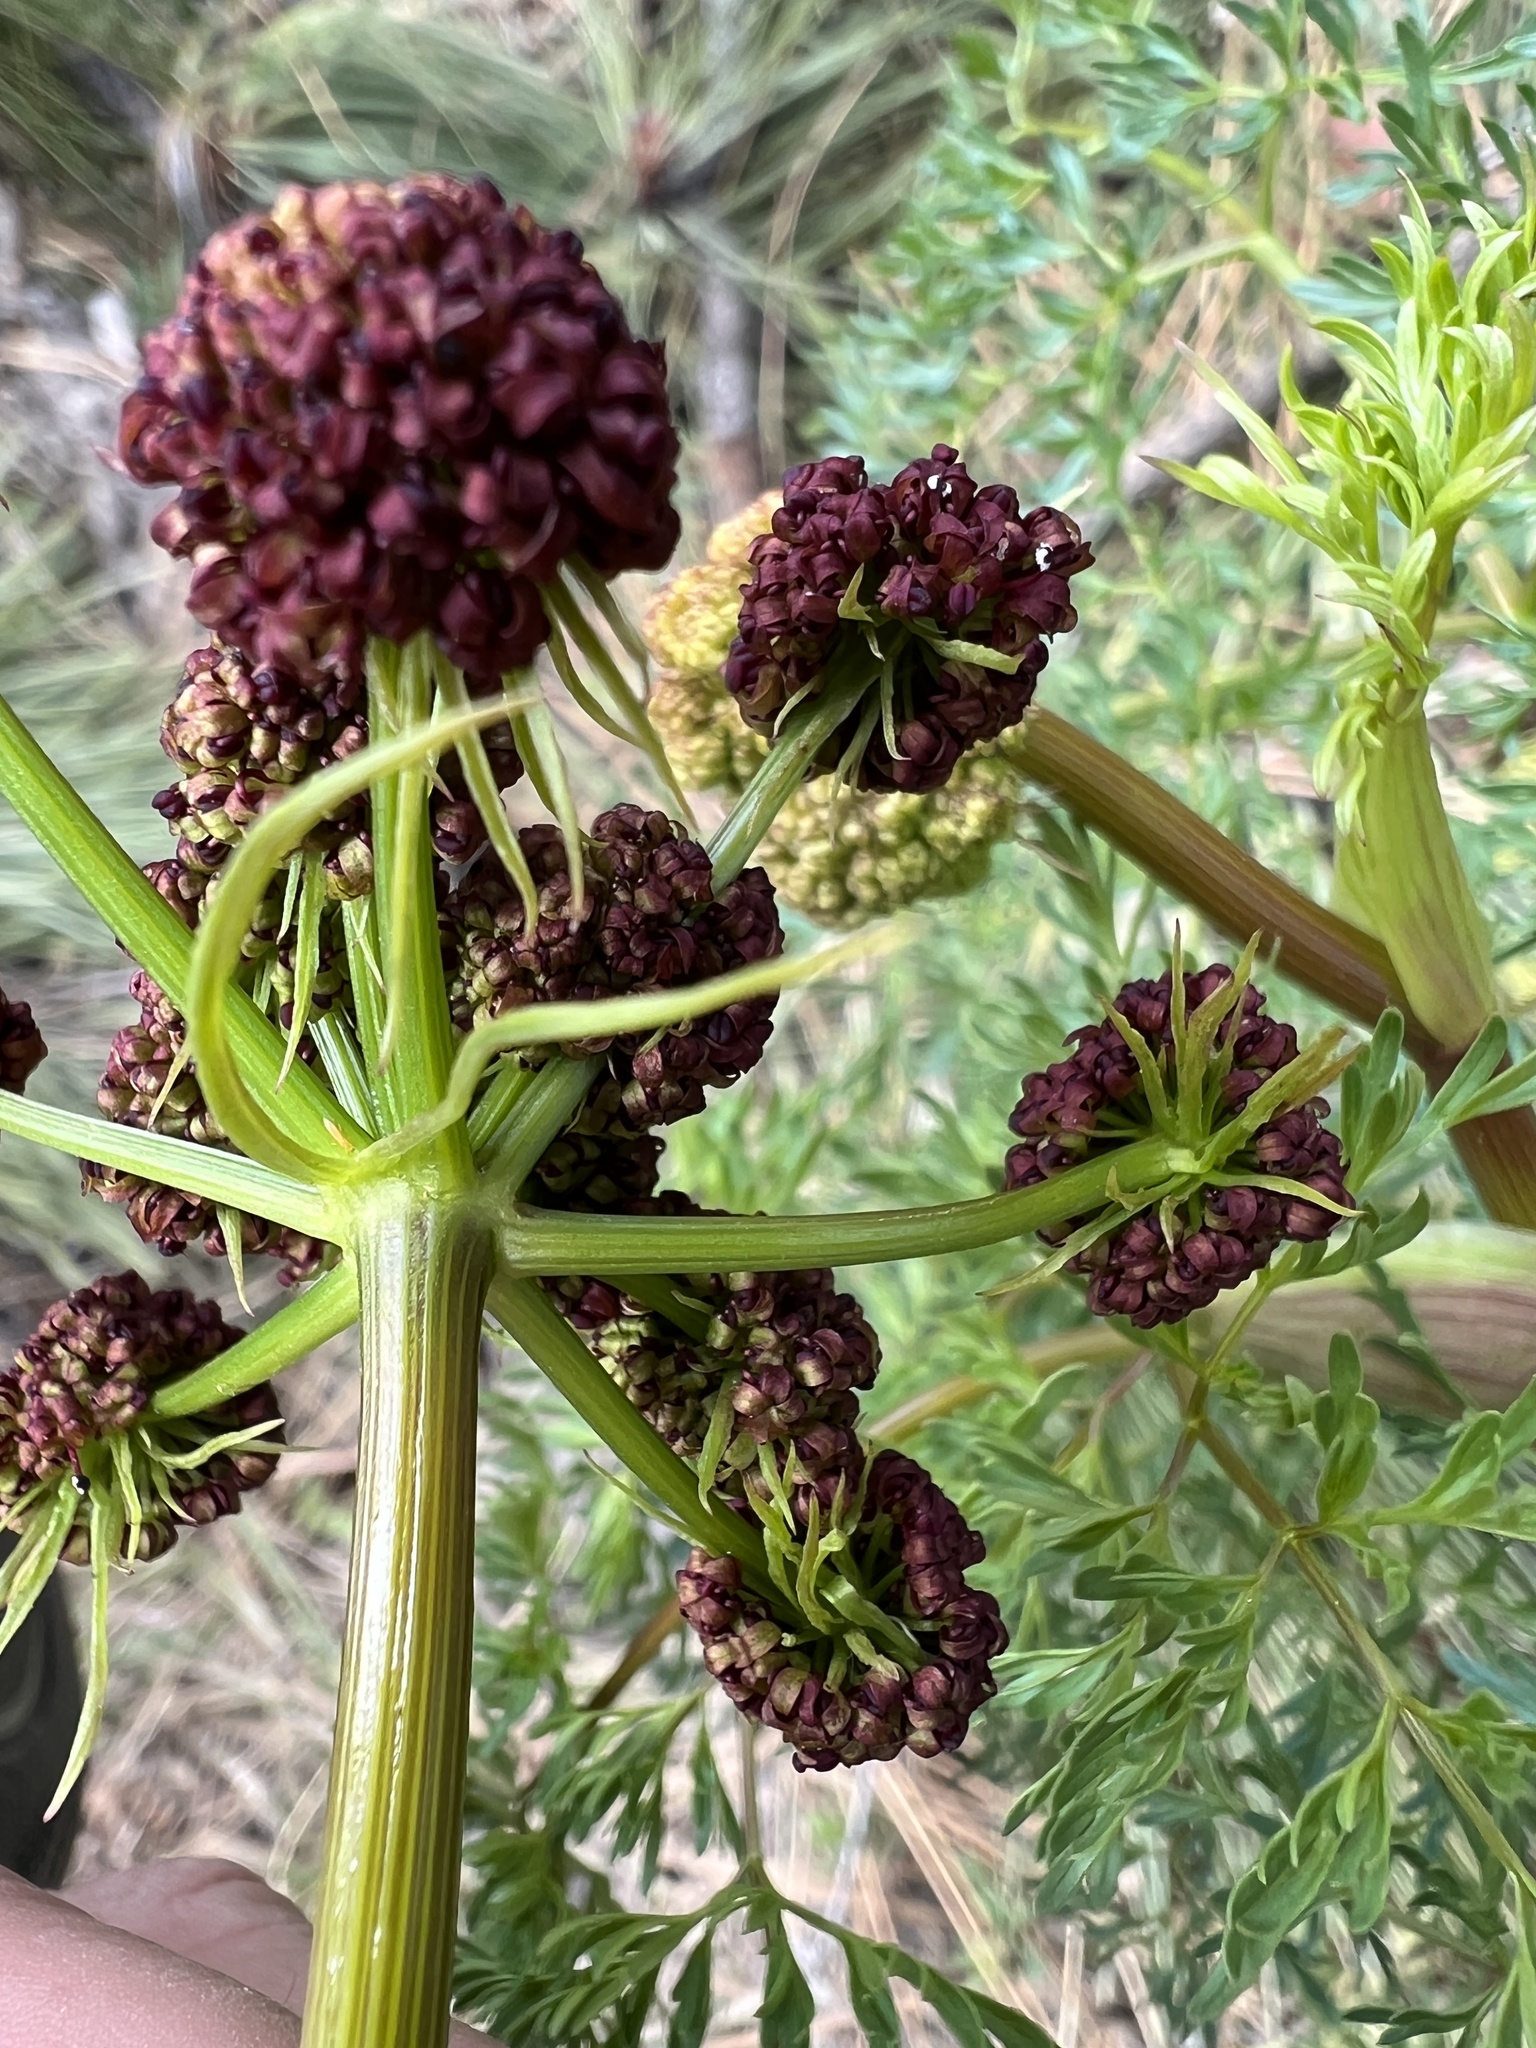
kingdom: Plantae
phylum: Tracheophyta
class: Magnoliopsida
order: Apiales
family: Apiaceae
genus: Lomatium
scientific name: Lomatium multifidum
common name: Carrot-leaved biscuitroot
